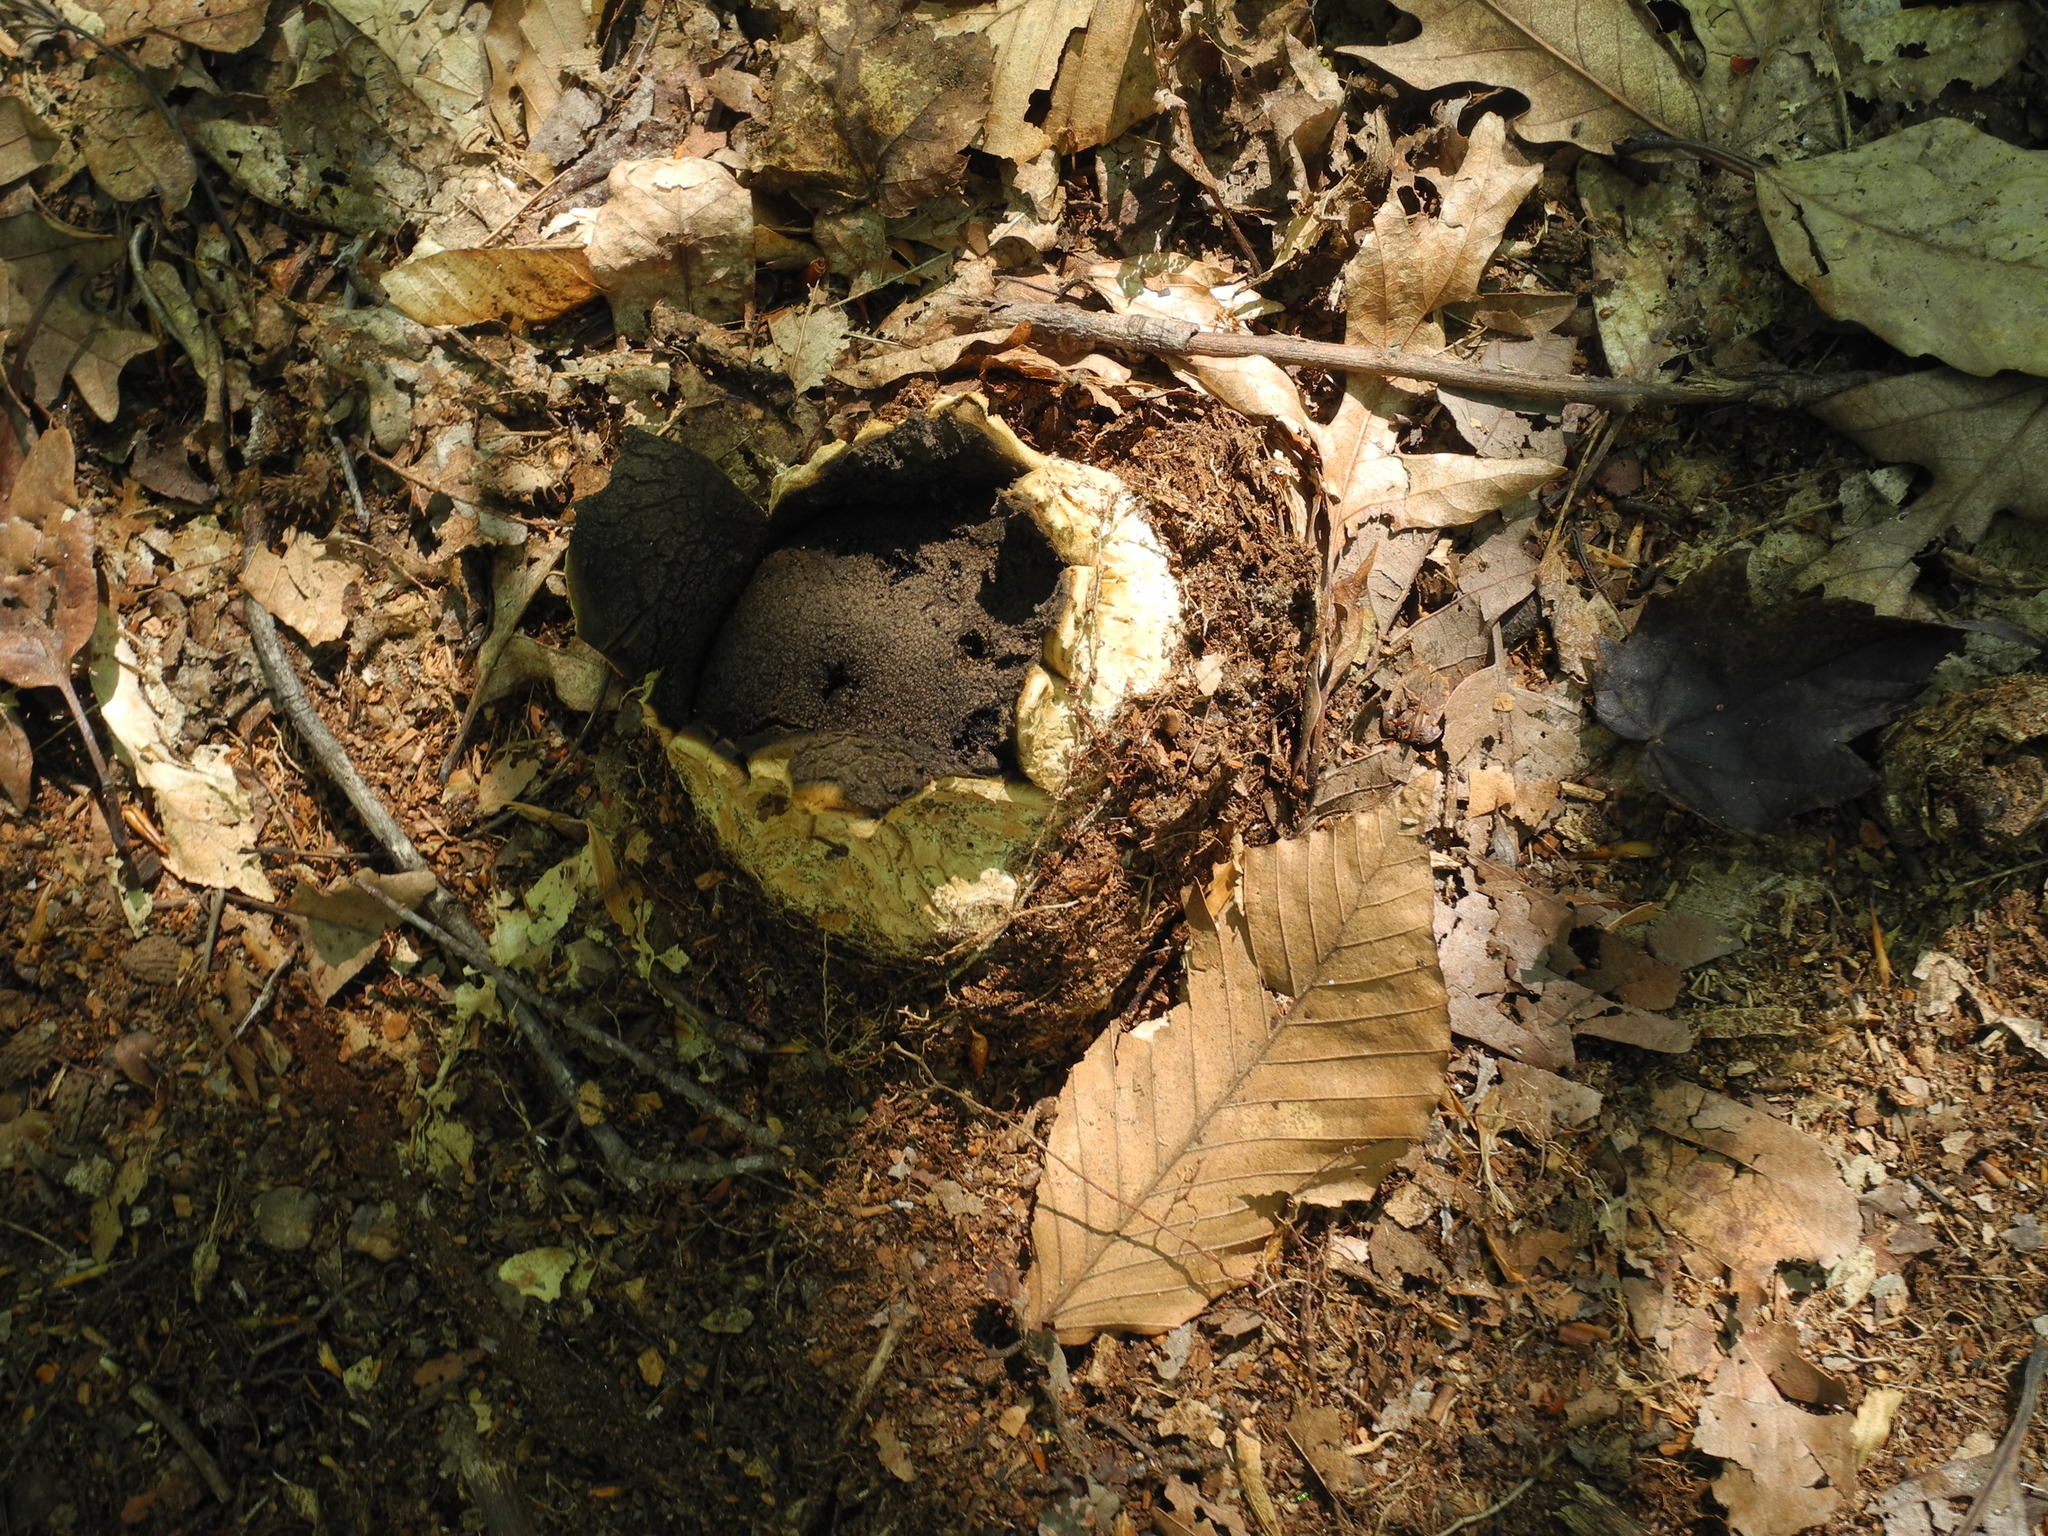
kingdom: Fungi
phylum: Basidiomycota
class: Agaricomycetes
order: Boletales
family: Sclerodermataceae
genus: Scleroderma
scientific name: Scleroderma polyrhizum
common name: Many-rooted earthball
